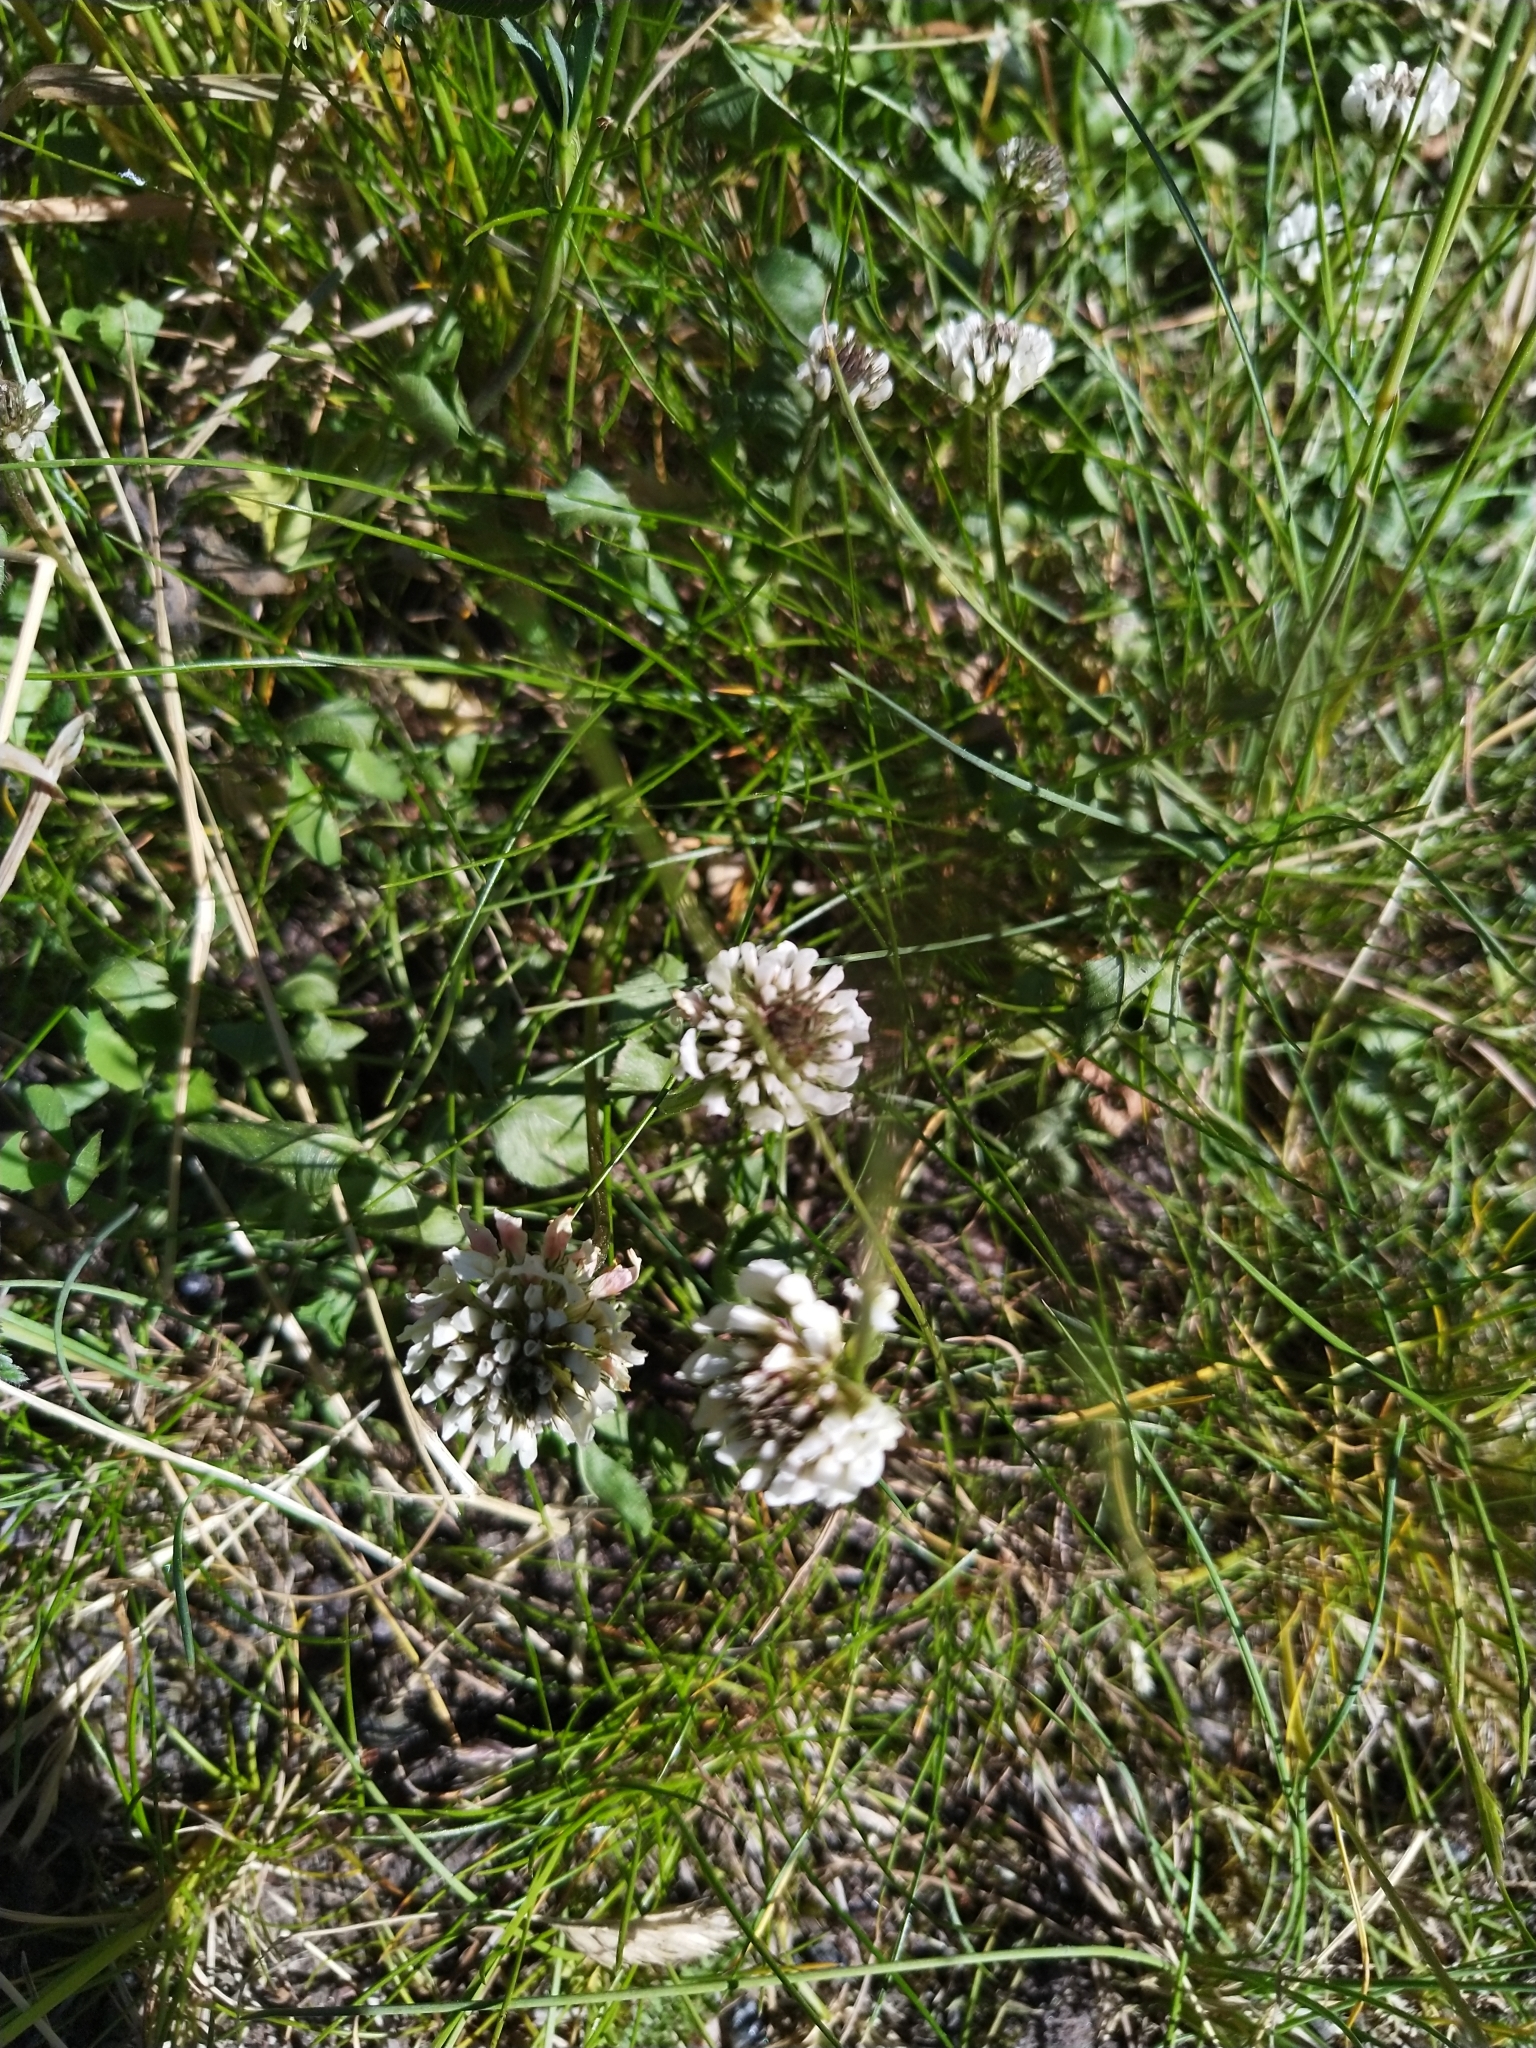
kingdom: Plantae
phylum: Tracheophyta
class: Magnoliopsida
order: Fabales
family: Fabaceae
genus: Trifolium
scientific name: Trifolium repens
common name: White clover
